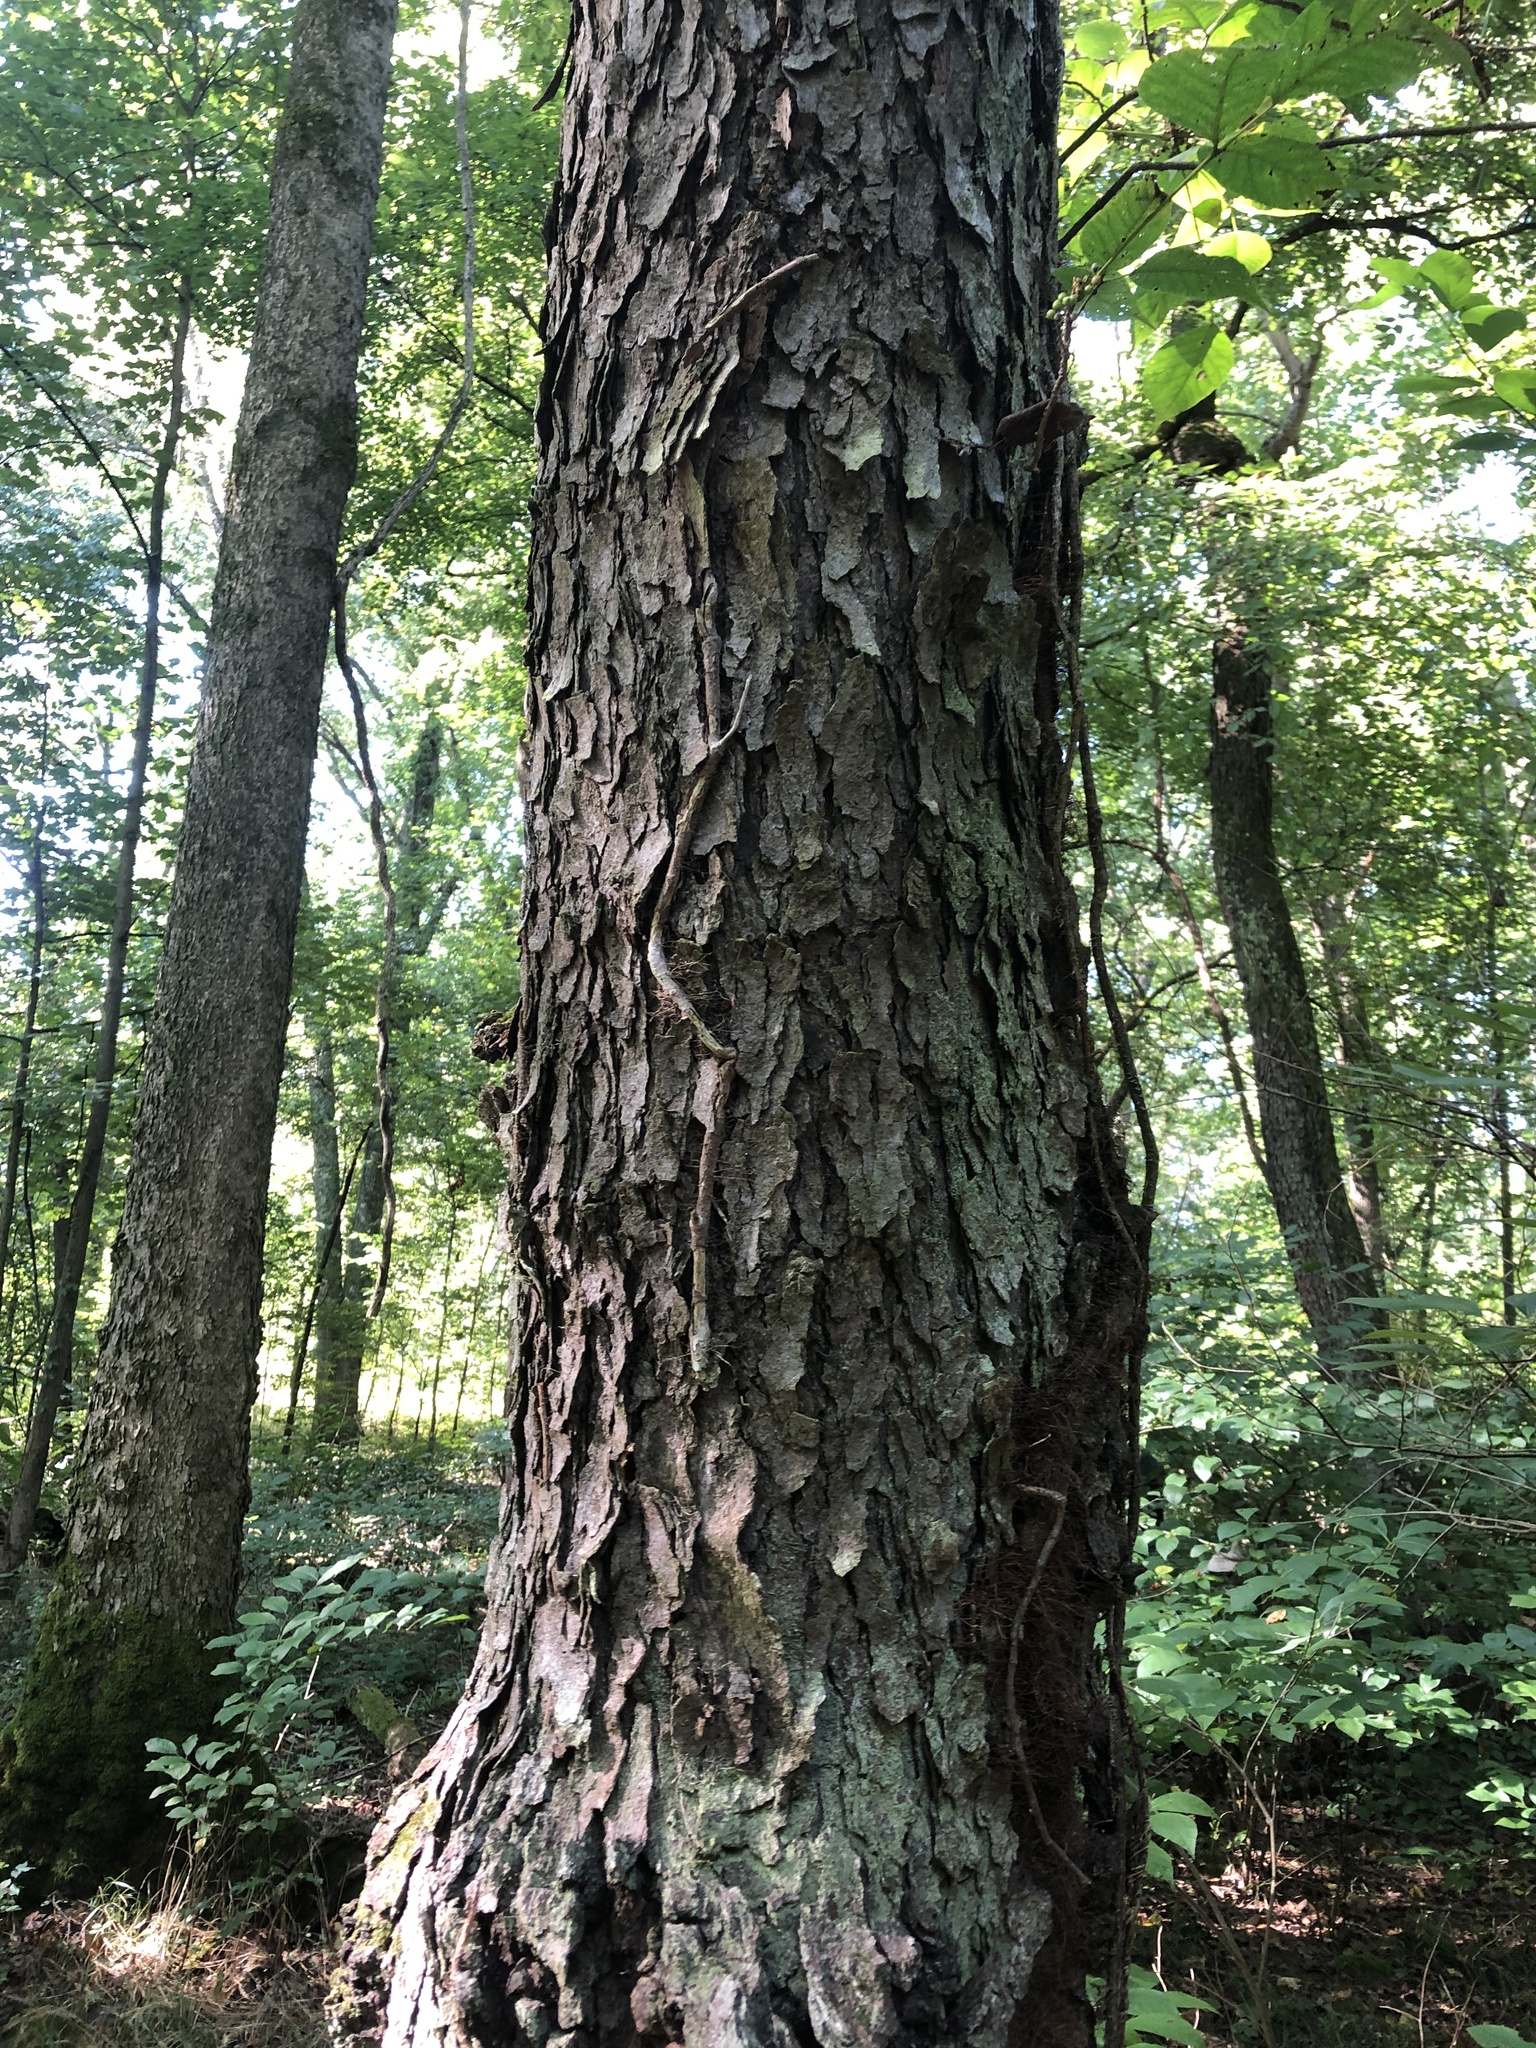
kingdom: Plantae
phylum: Tracheophyta
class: Magnoliopsida
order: Rosales
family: Rosaceae
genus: Prunus
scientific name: Prunus serotina
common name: Black cherry
